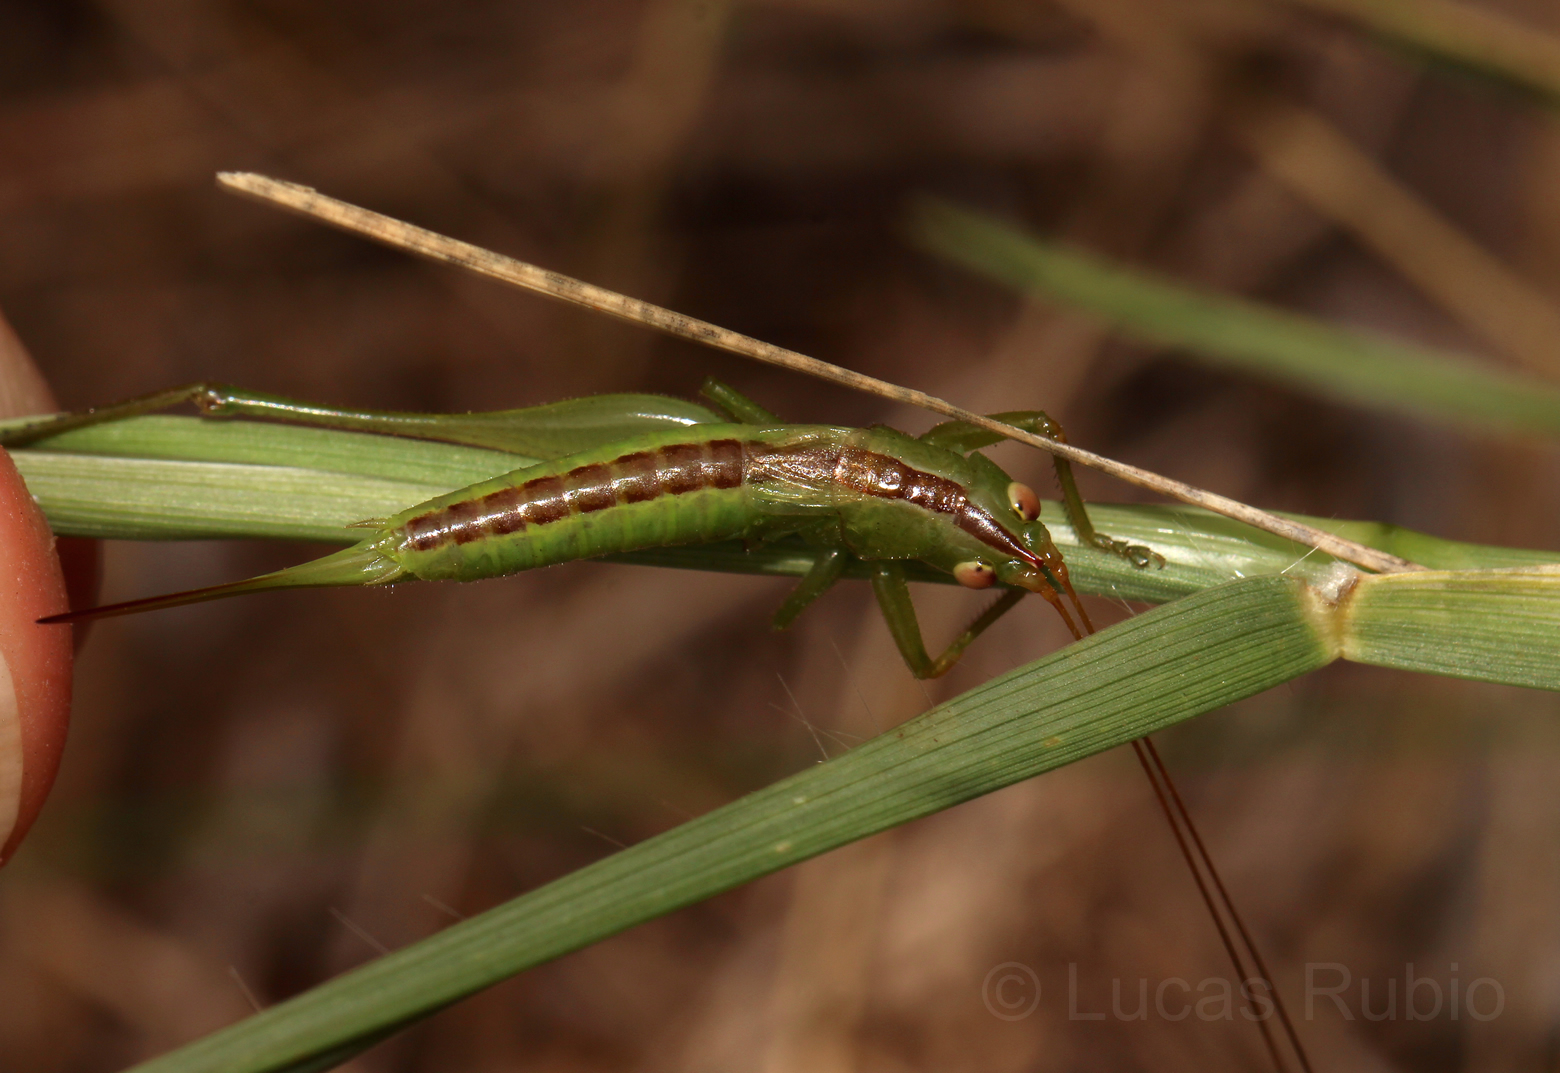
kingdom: Animalia
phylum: Arthropoda
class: Insecta
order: Orthoptera
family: Tettigoniidae
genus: Conocephalus
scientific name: Conocephalus
